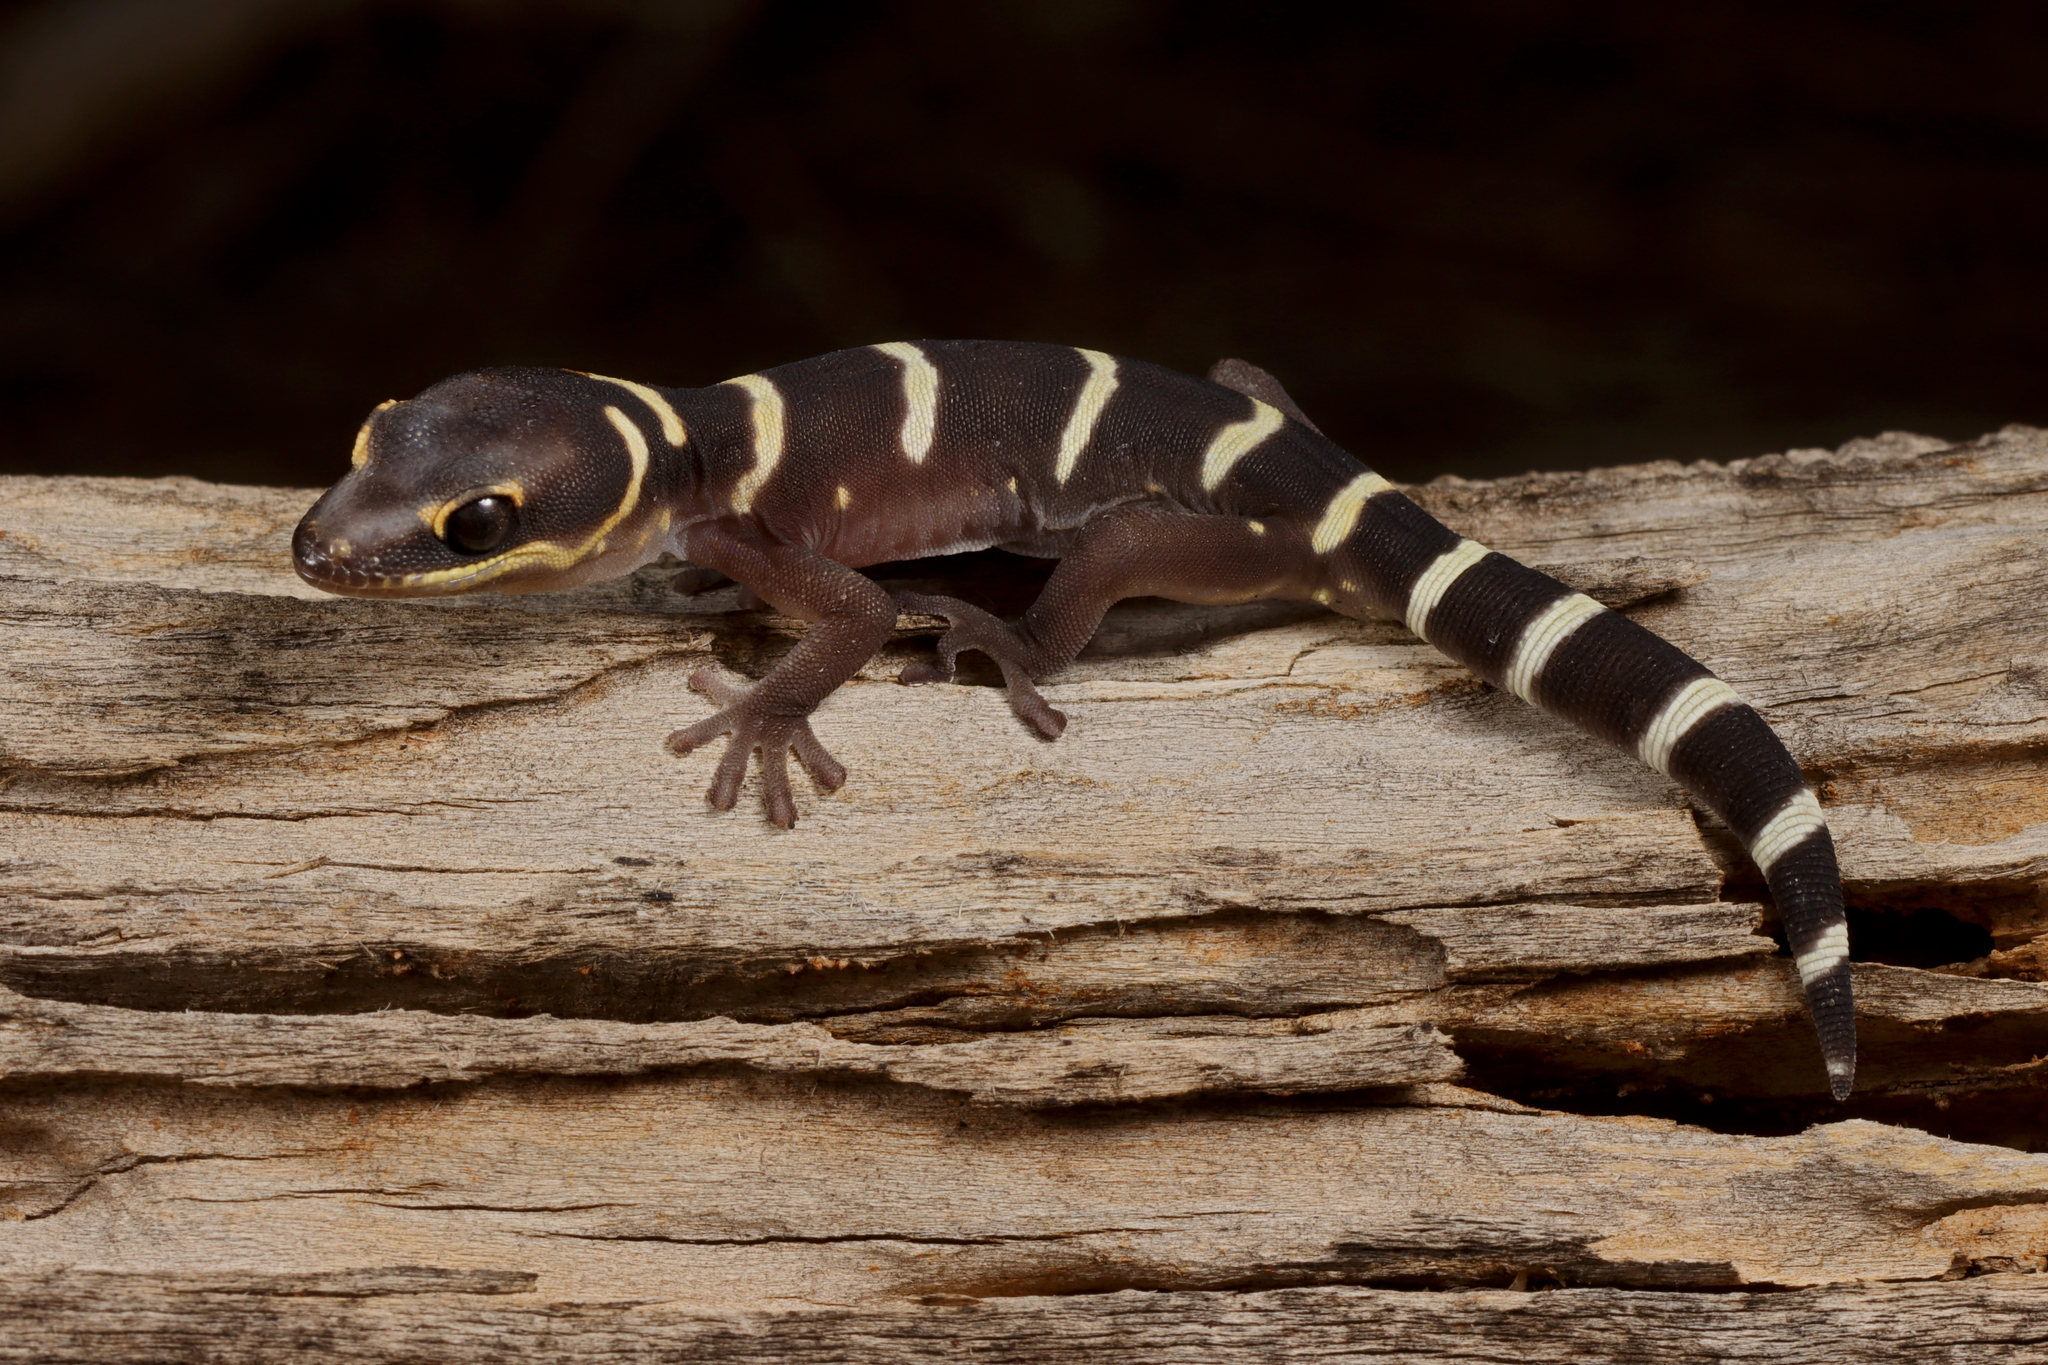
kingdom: Animalia
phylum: Chordata
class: Squamata
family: Diplodactylidae
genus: Oedura
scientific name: Oedura cincta
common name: Inland marbled velvet gecko
